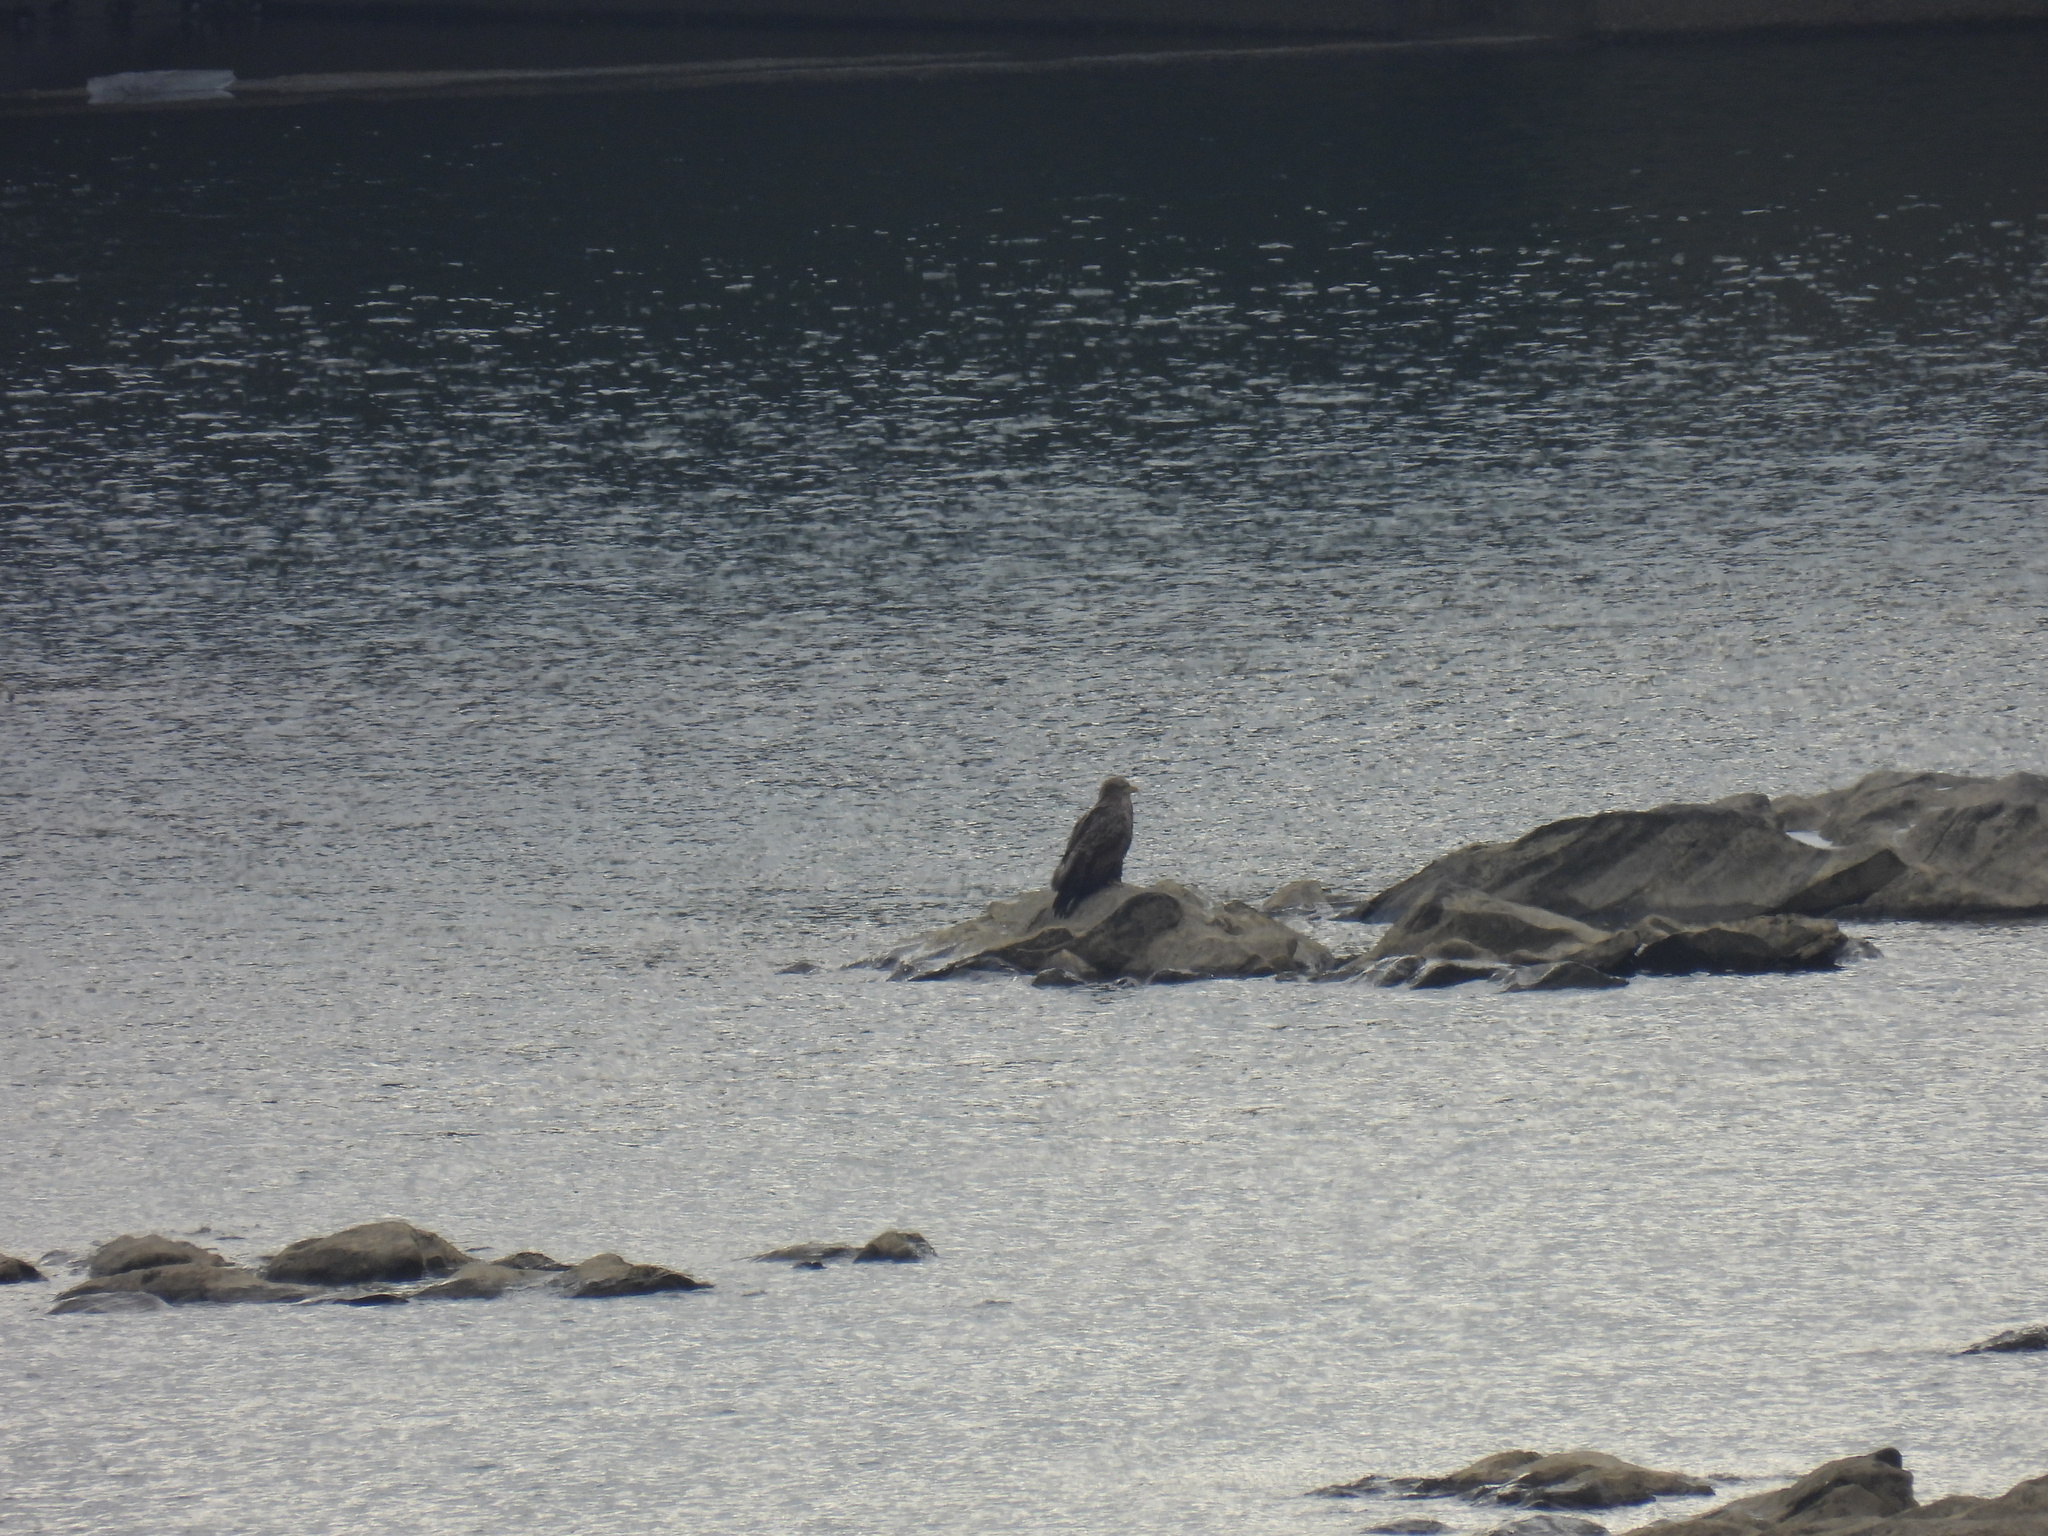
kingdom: Animalia
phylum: Chordata
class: Aves
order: Accipitriformes
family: Accipitridae
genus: Haliaeetus
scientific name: Haliaeetus albicilla
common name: White-tailed eagle
